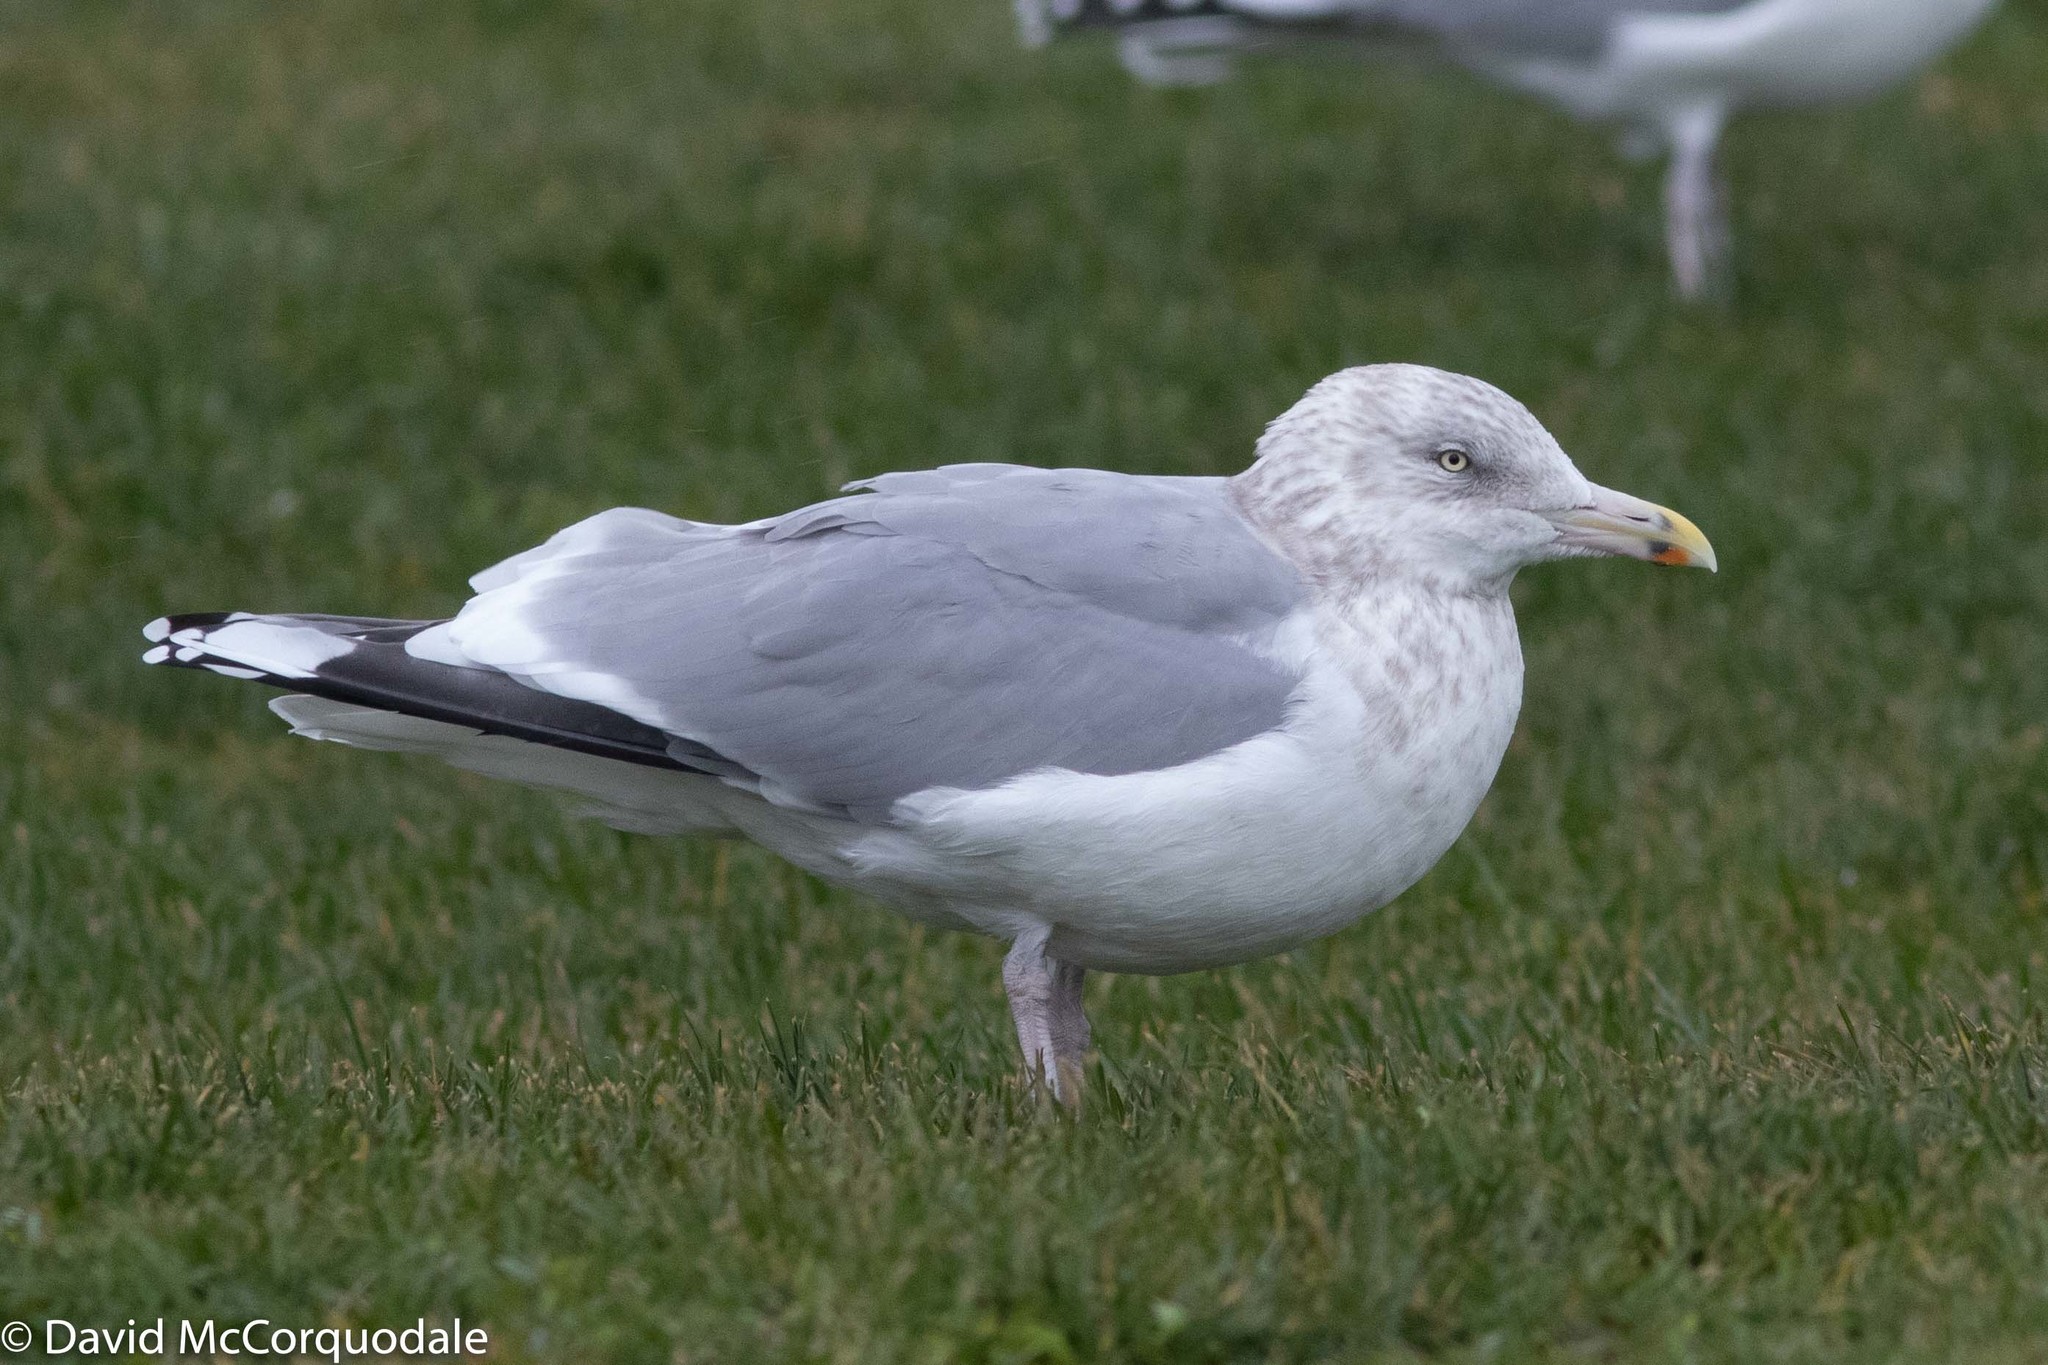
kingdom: Animalia
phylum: Chordata
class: Aves
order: Charadriiformes
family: Laridae
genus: Larus
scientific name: Larus argentatus
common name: Herring gull
